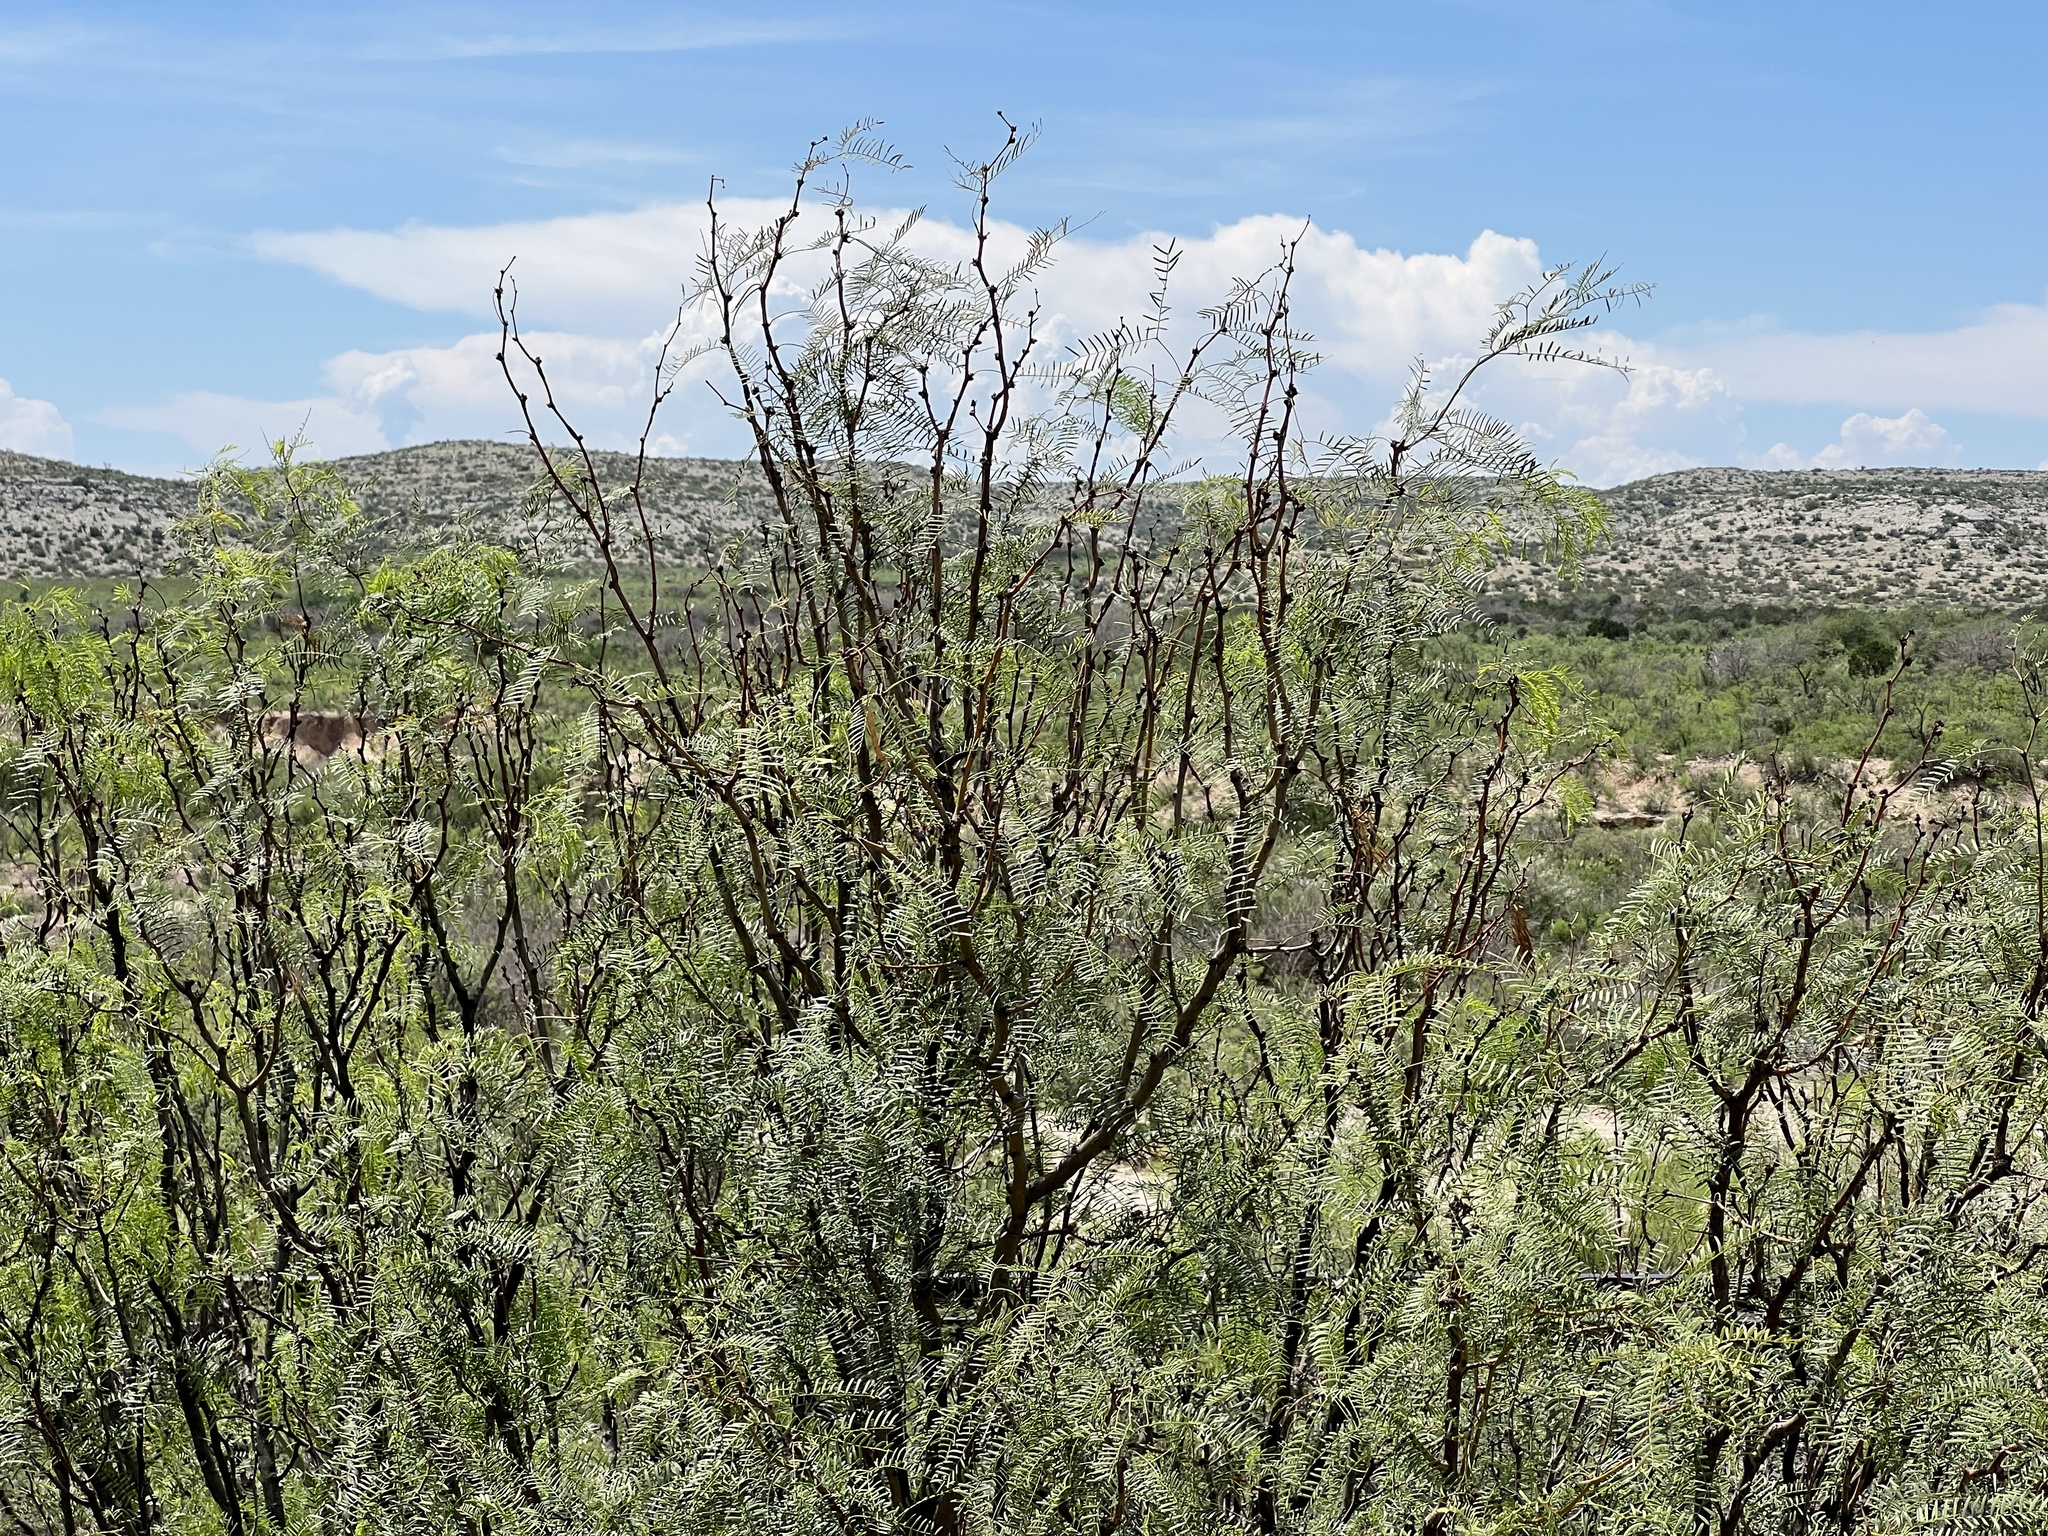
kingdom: Plantae
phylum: Tracheophyta
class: Magnoliopsida
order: Fabales
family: Fabaceae
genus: Prosopis
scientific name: Prosopis glandulosa
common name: Honey mesquite
